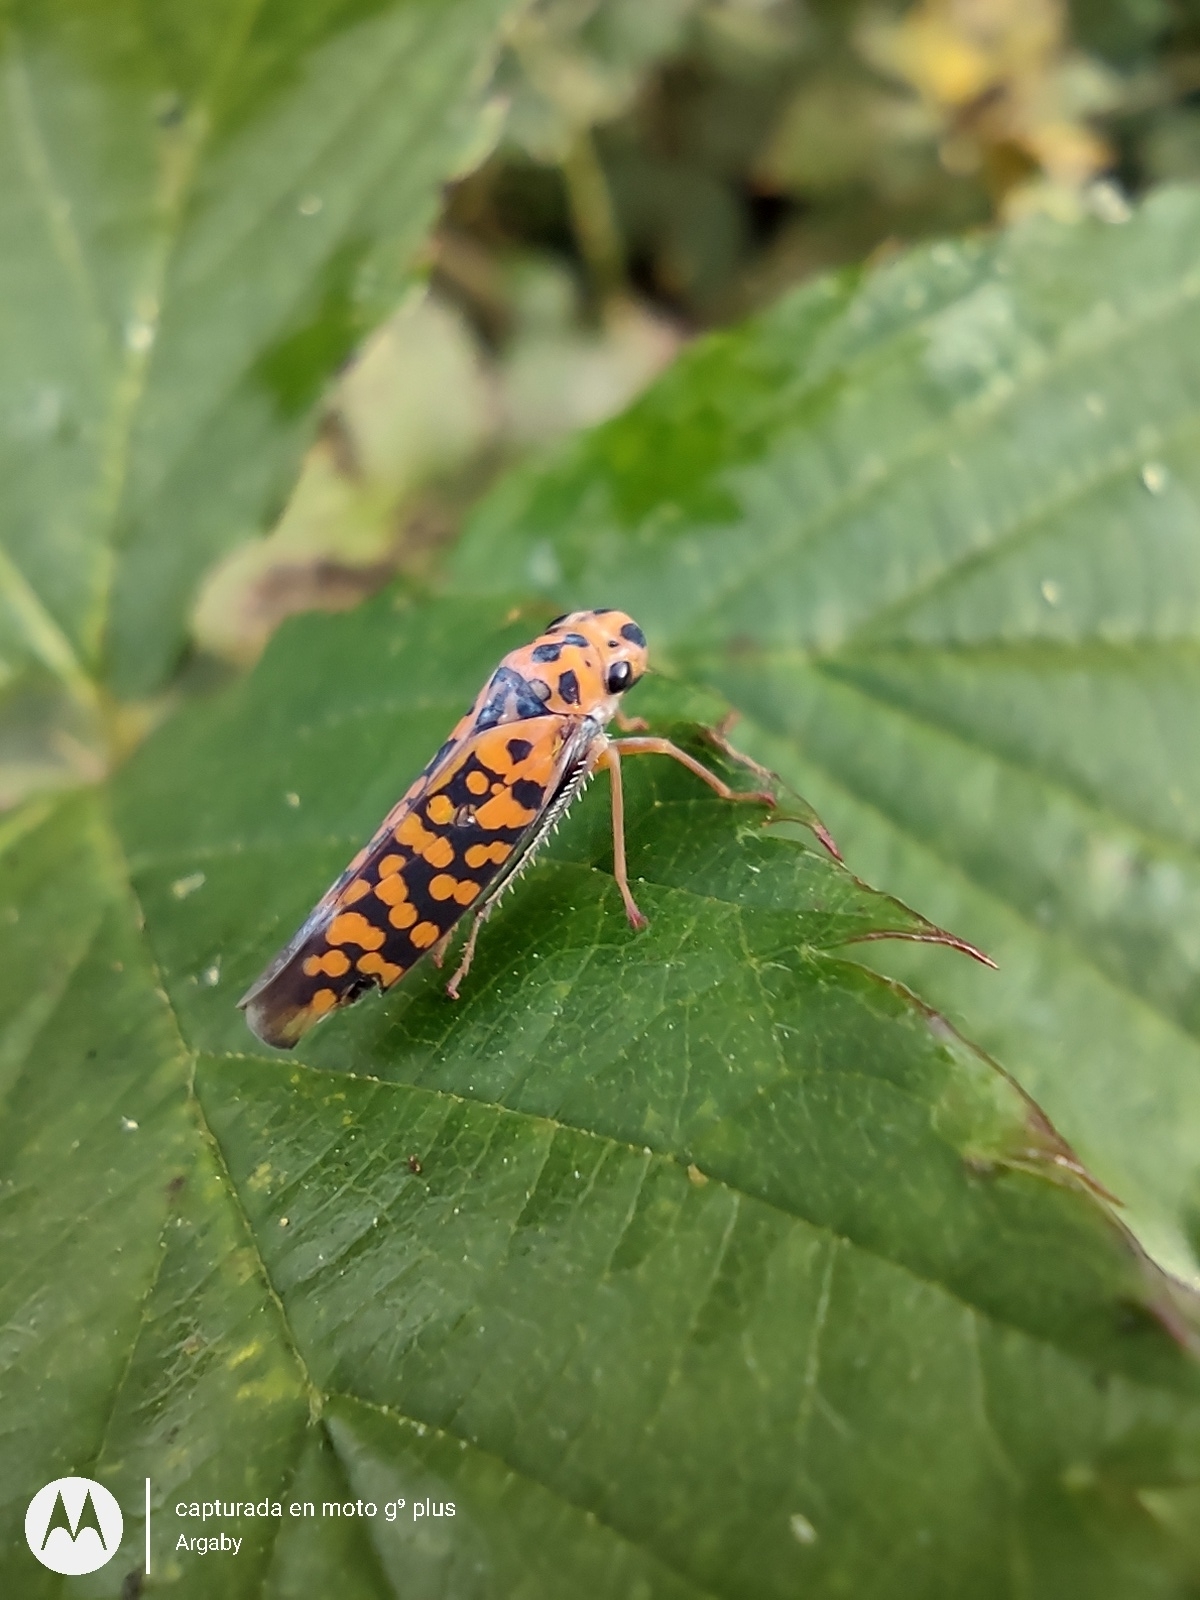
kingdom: Animalia
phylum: Arthropoda
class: Insecta
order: Hemiptera
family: Cicadellidae
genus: Pawiloma
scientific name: Pawiloma victima
